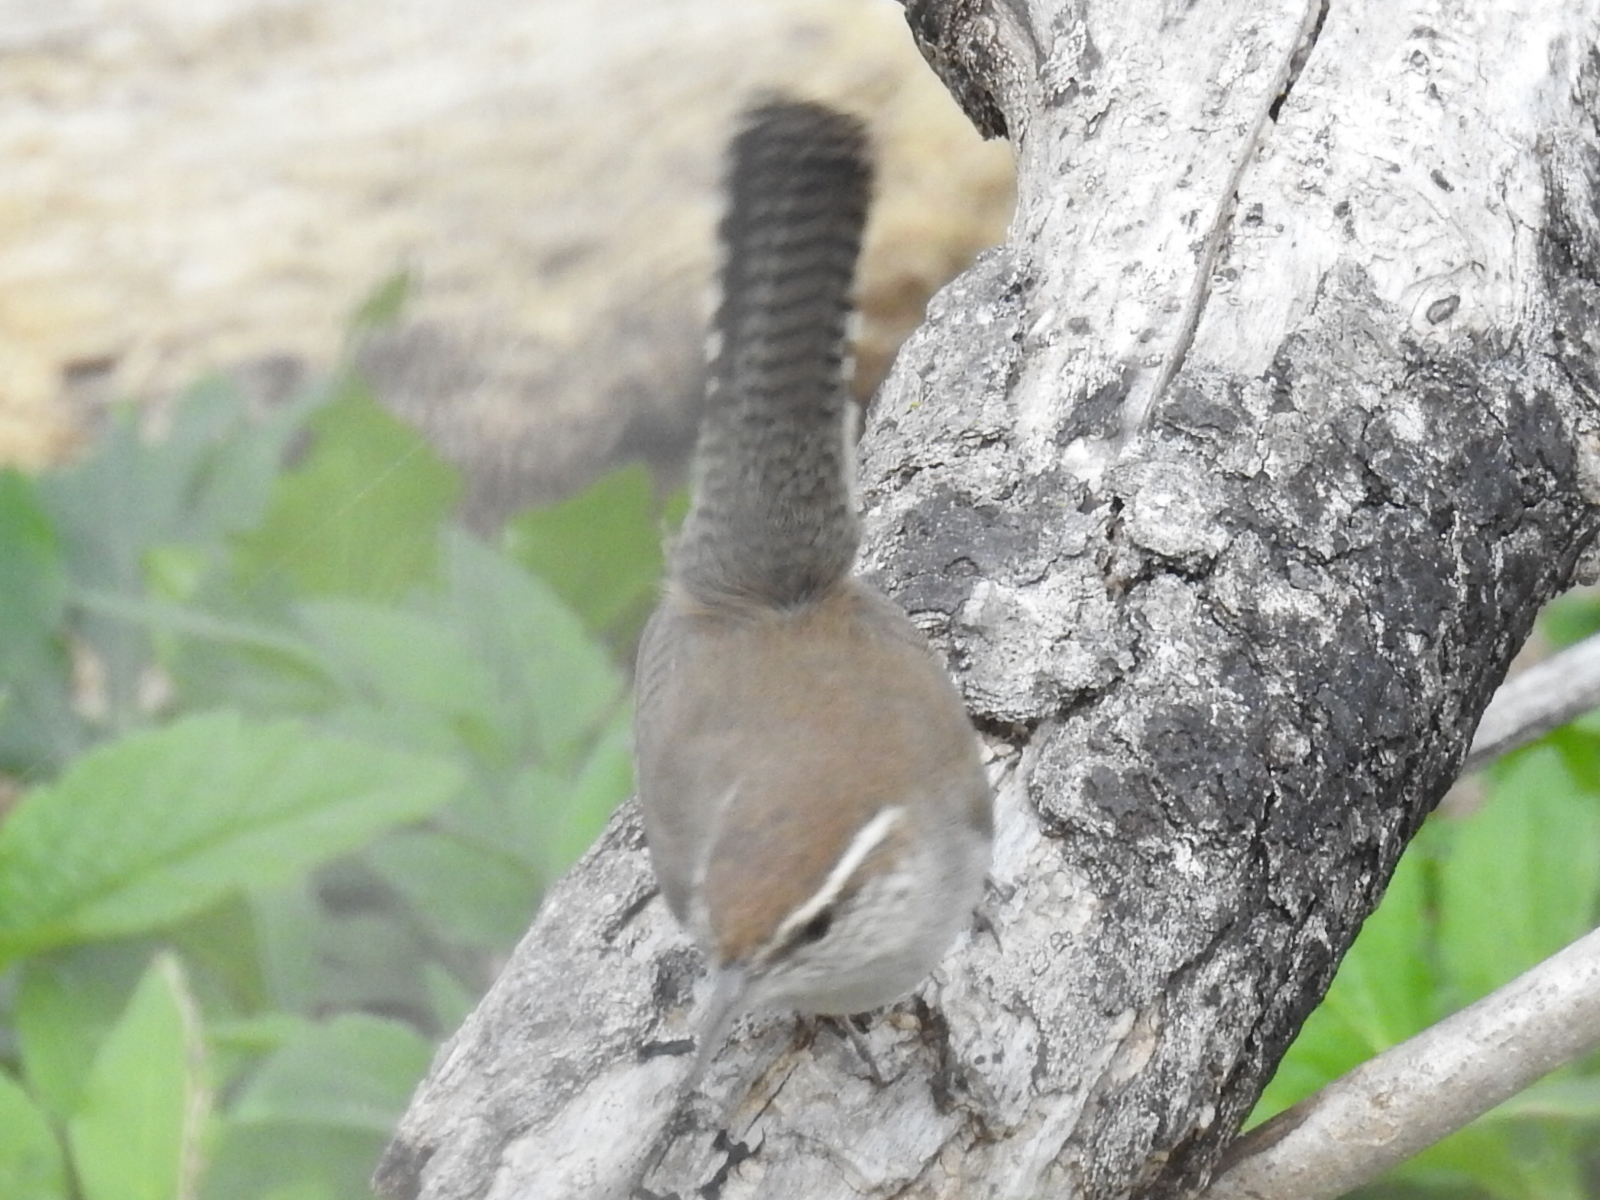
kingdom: Animalia
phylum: Chordata
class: Aves
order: Passeriformes
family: Troglodytidae
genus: Thryomanes
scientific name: Thryomanes bewickii
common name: Bewick's wren
